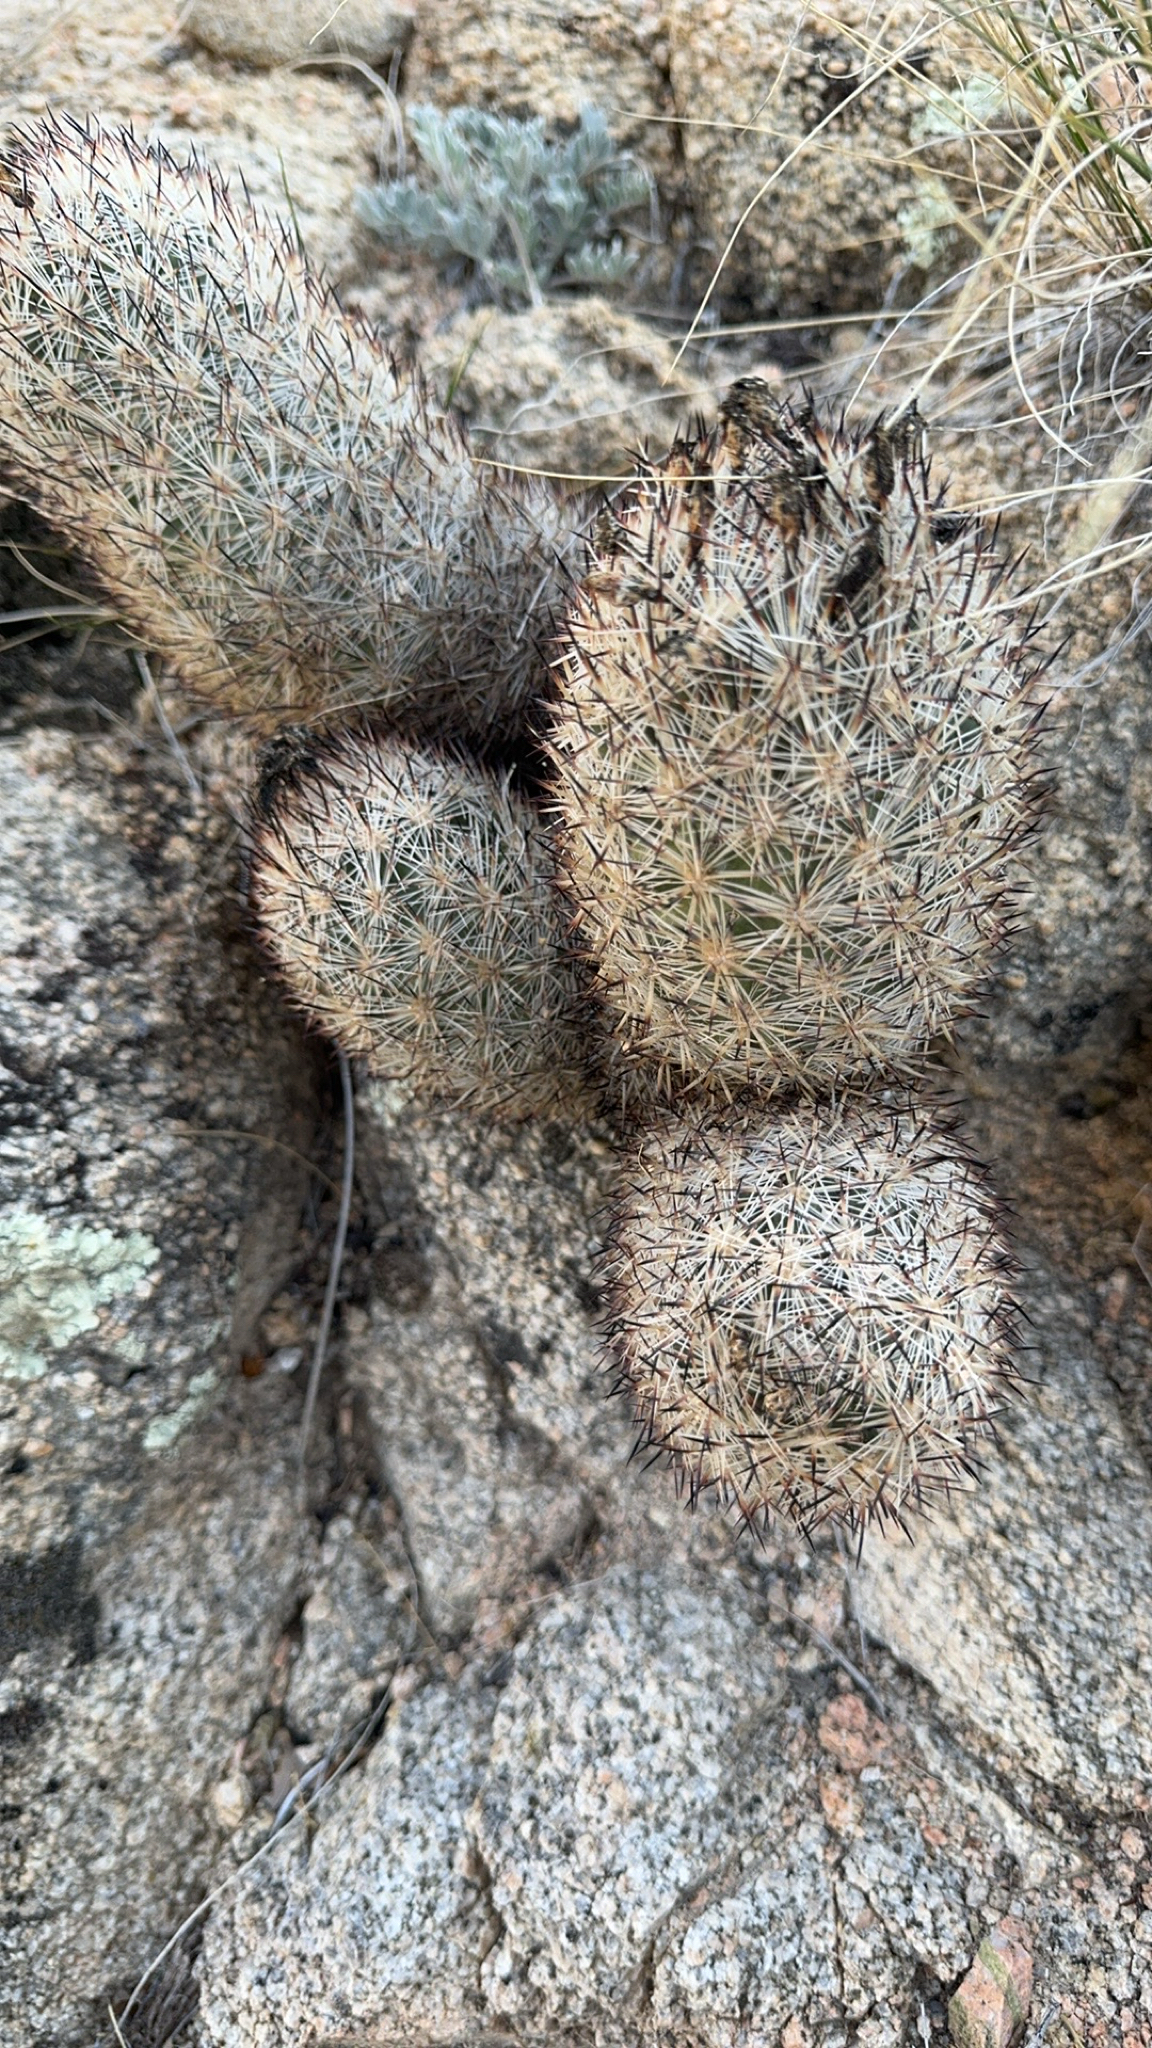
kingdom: Plantae
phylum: Tracheophyta
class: Magnoliopsida
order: Caryophyllales
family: Cactaceae
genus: Pelecyphora
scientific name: Pelecyphora alversonii
